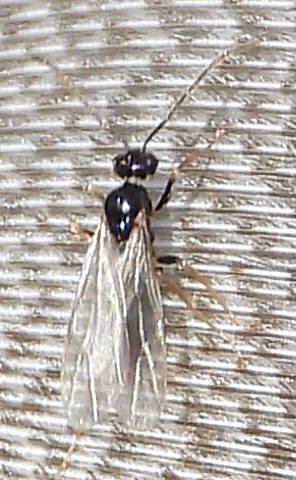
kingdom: Animalia
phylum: Arthropoda
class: Insecta
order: Hymenoptera
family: Formicidae
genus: Prenolepis
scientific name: Prenolepis imparis
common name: Small honey ant
